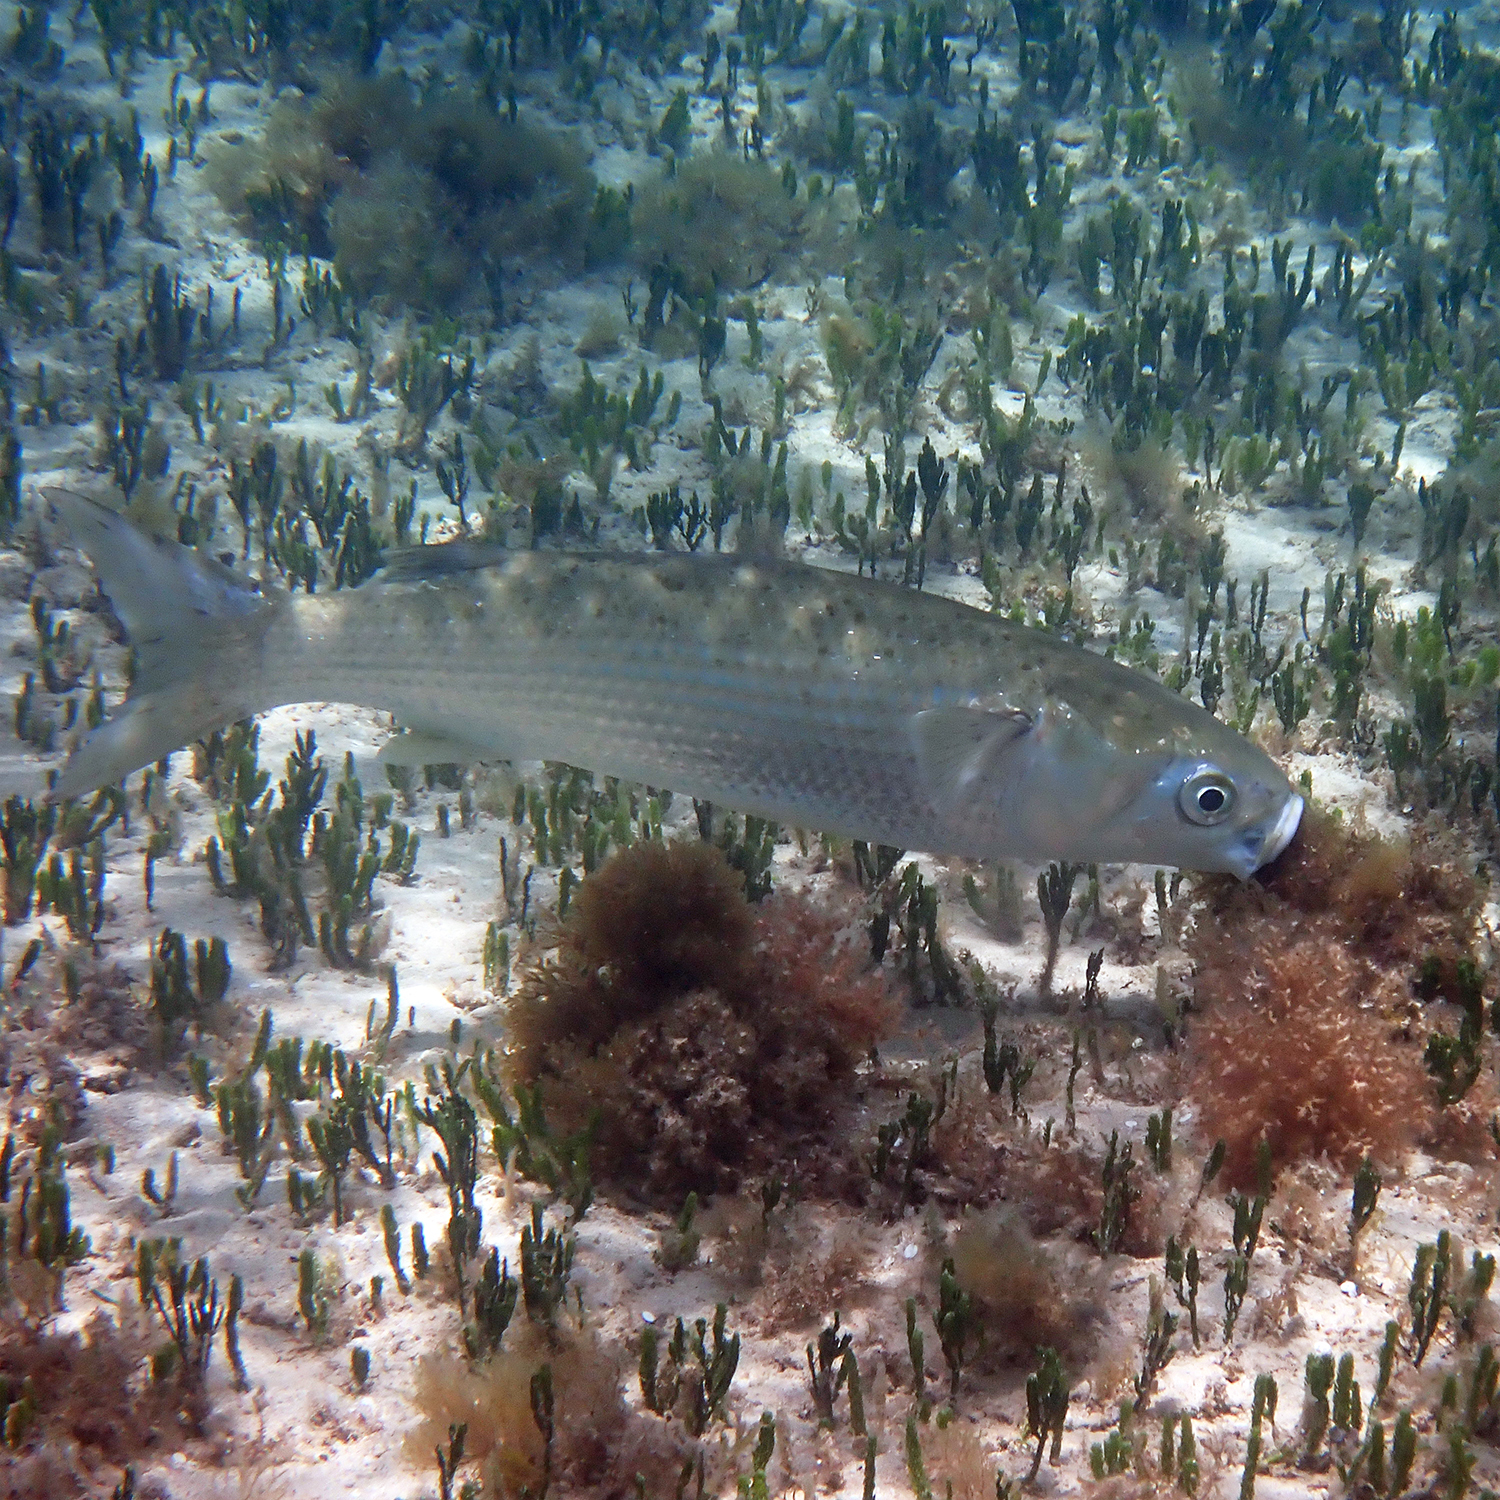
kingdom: Animalia
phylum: Chordata
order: Mugiliformes
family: Mugilidae
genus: Mugil
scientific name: Mugil cephalus
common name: Grey mullet
